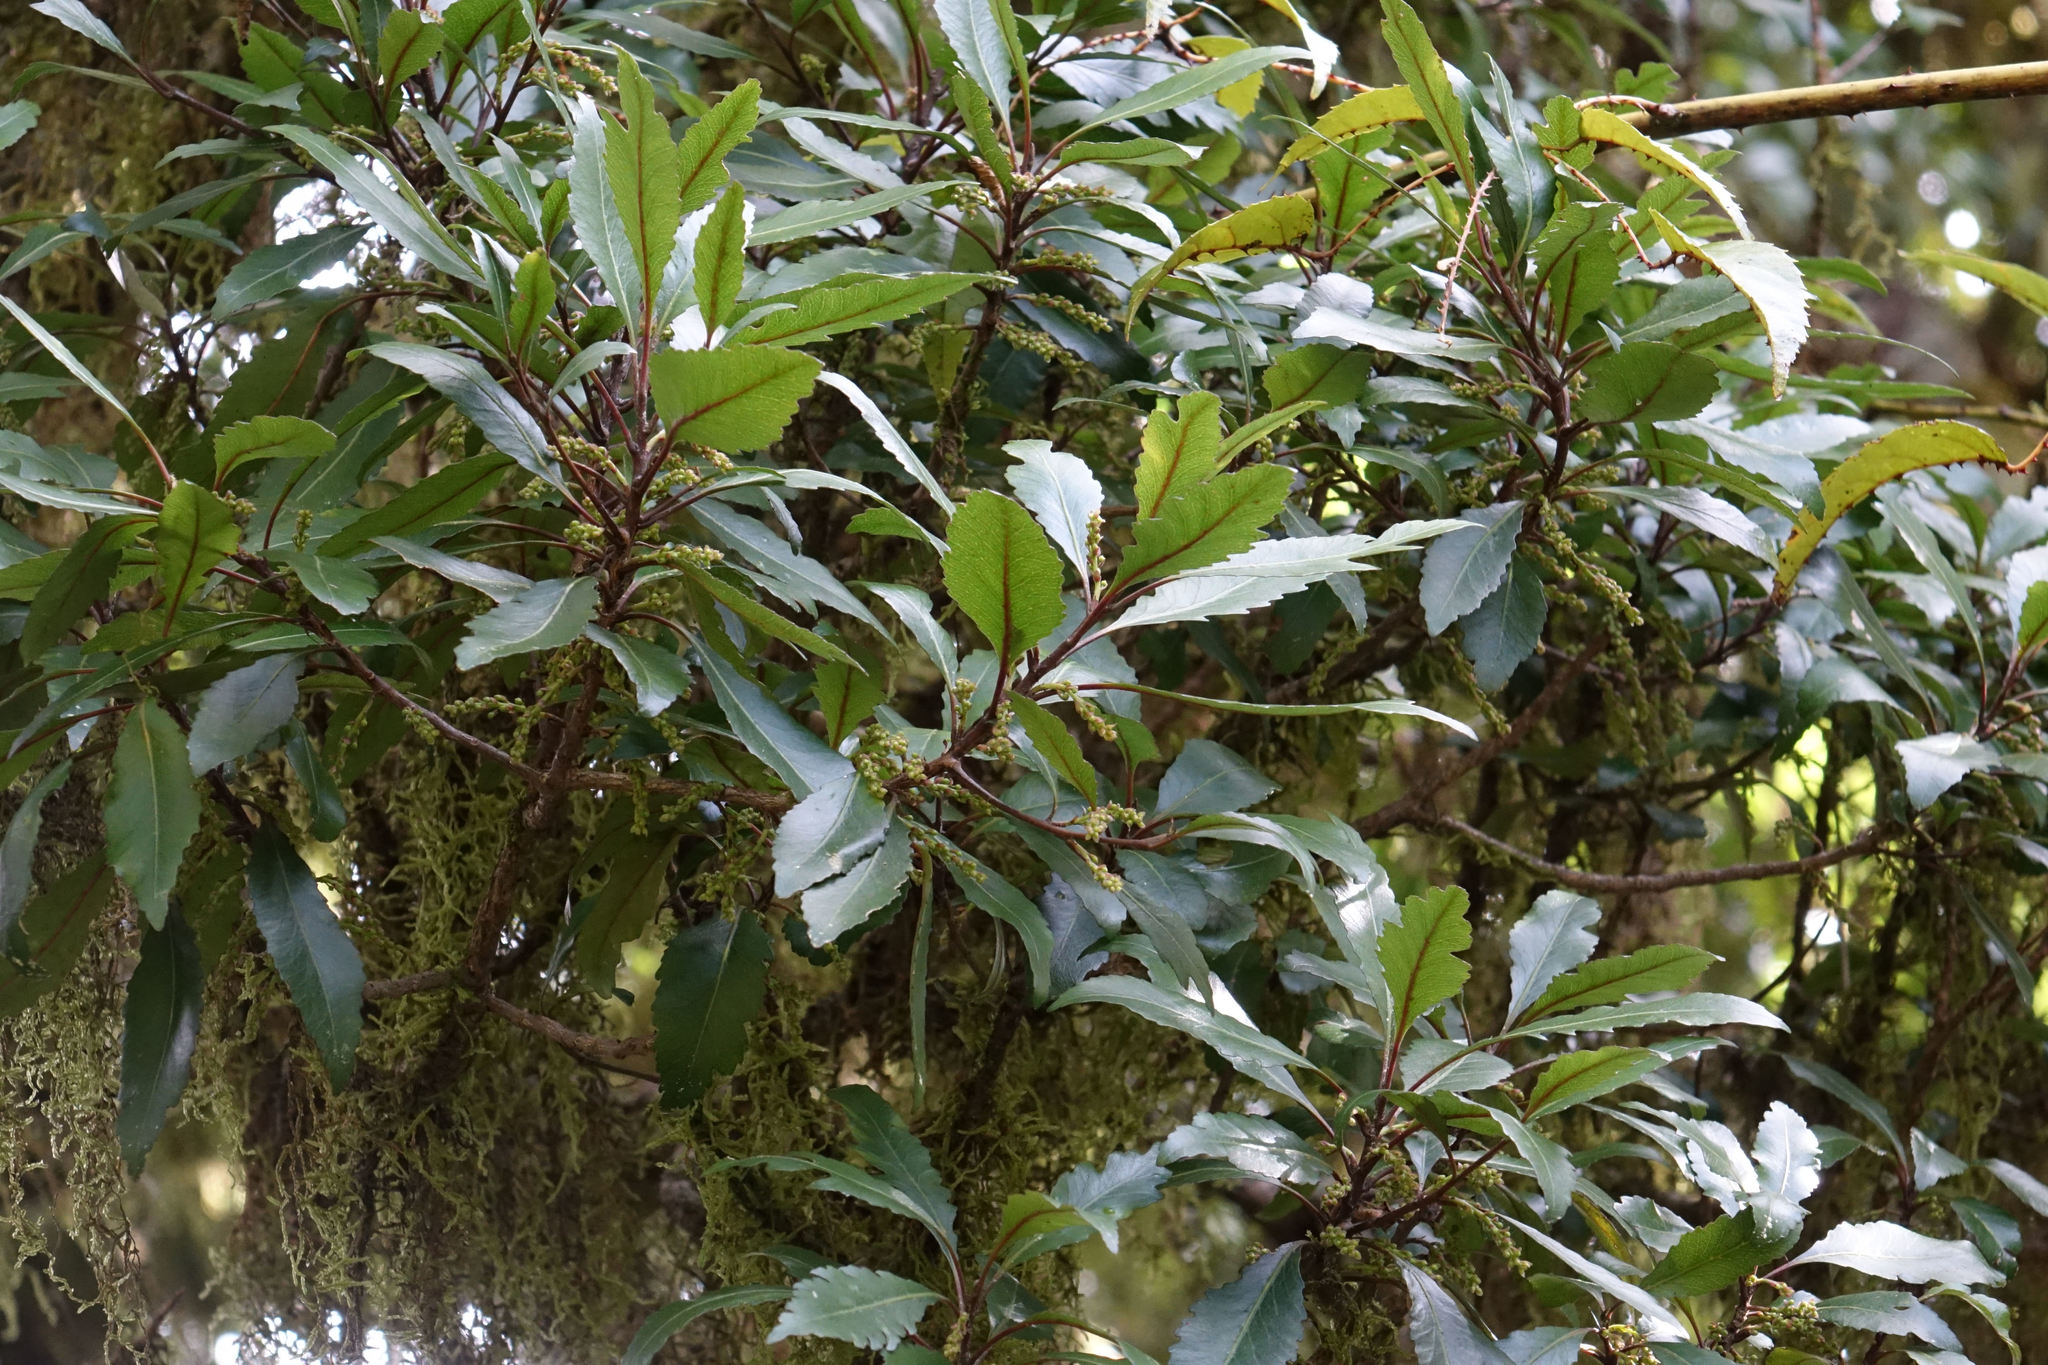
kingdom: Plantae
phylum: Tracheophyta
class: Magnoliopsida
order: Oxalidales
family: Elaeocarpaceae
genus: Elaeocarpus
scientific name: Elaeocarpus hookerianus
